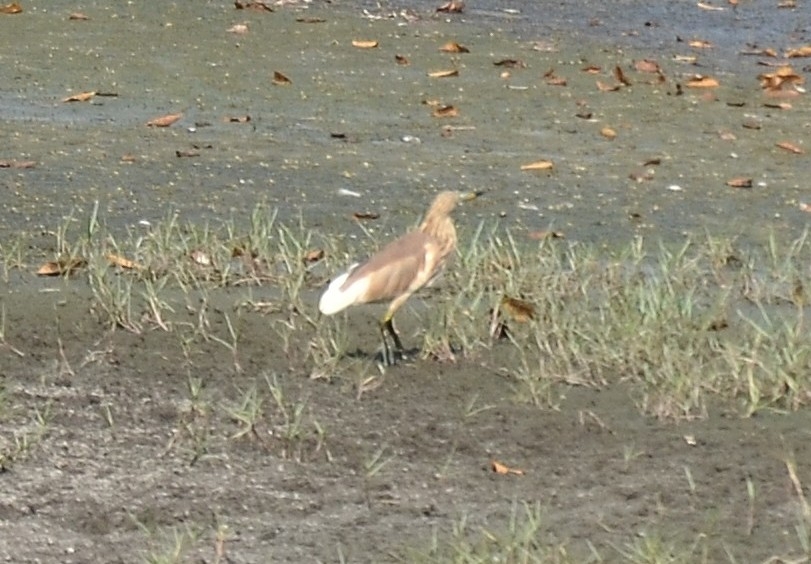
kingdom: Animalia
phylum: Chordata
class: Aves
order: Pelecaniformes
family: Ardeidae
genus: Ardeola
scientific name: Ardeola grayii
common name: Indian pond heron
